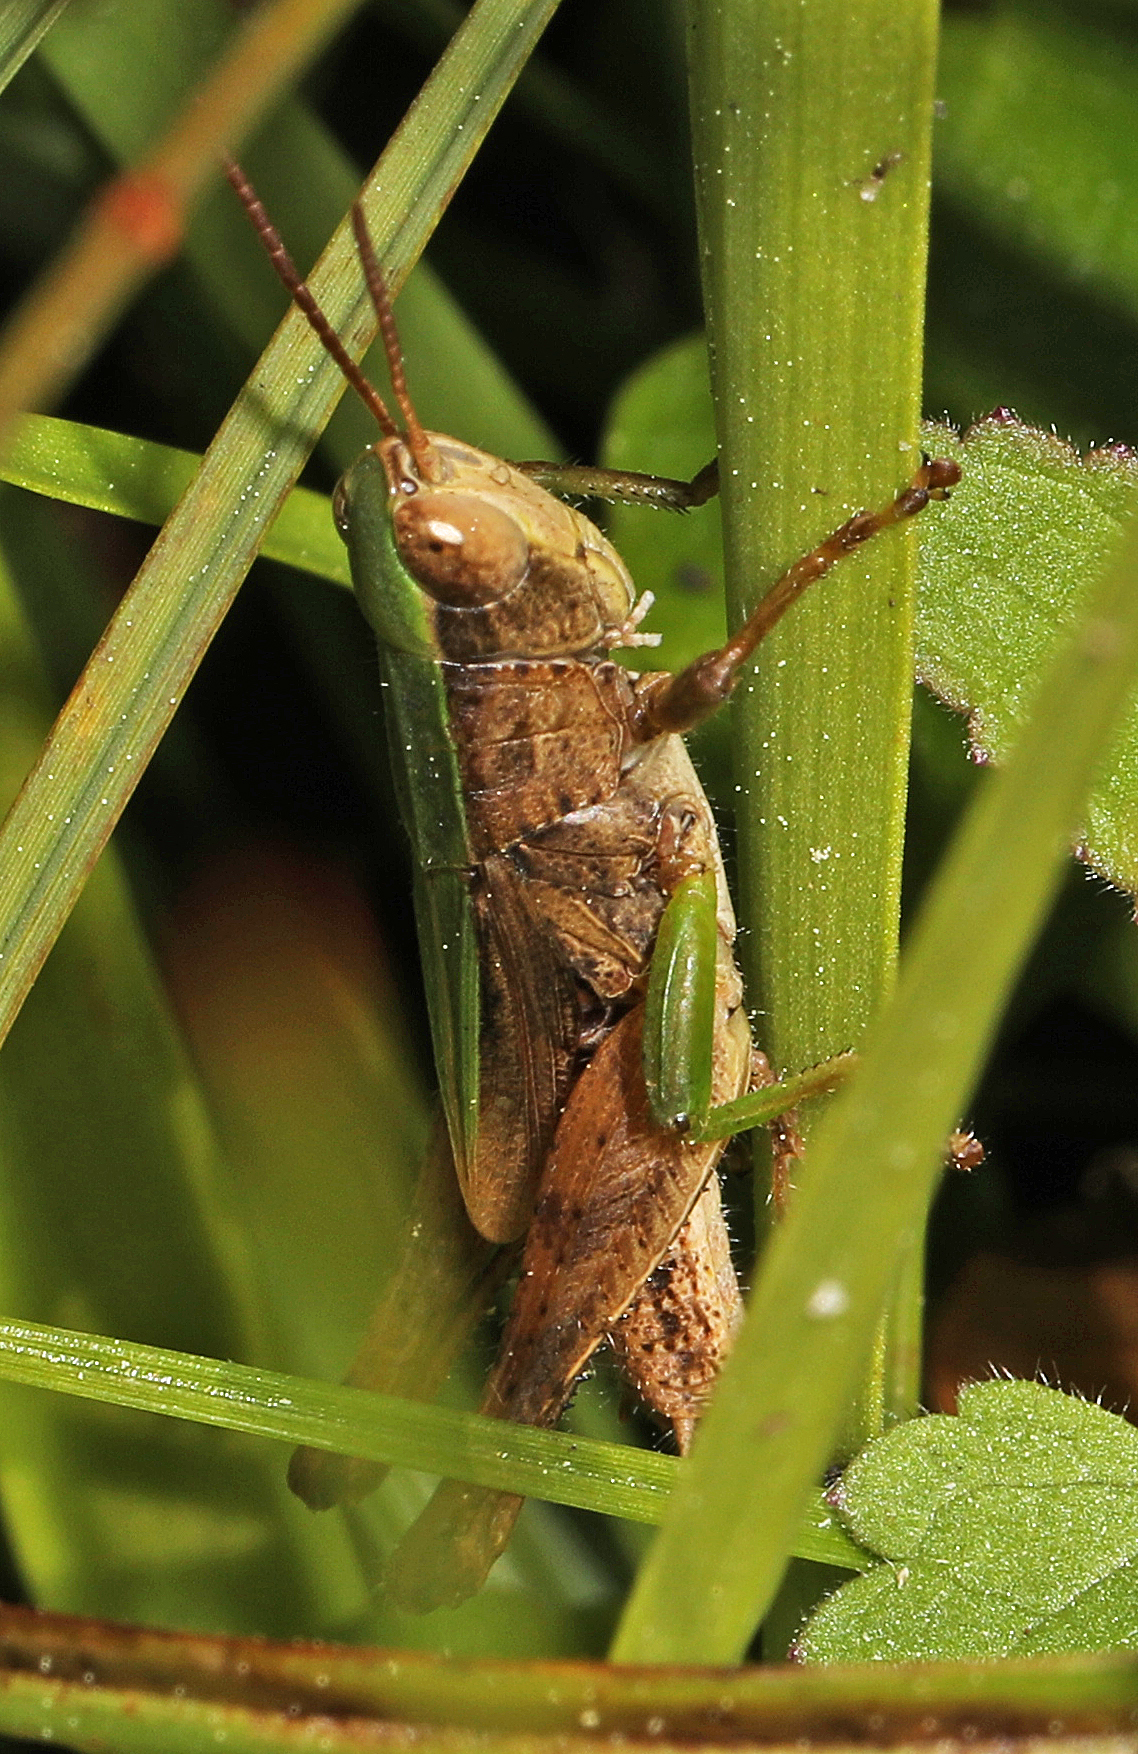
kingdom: Animalia
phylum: Arthropoda
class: Insecta
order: Orthoptera
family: Acrididae
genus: Dichromorpha
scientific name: Dichromorpha viridis
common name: Short-winged green grasshopper
